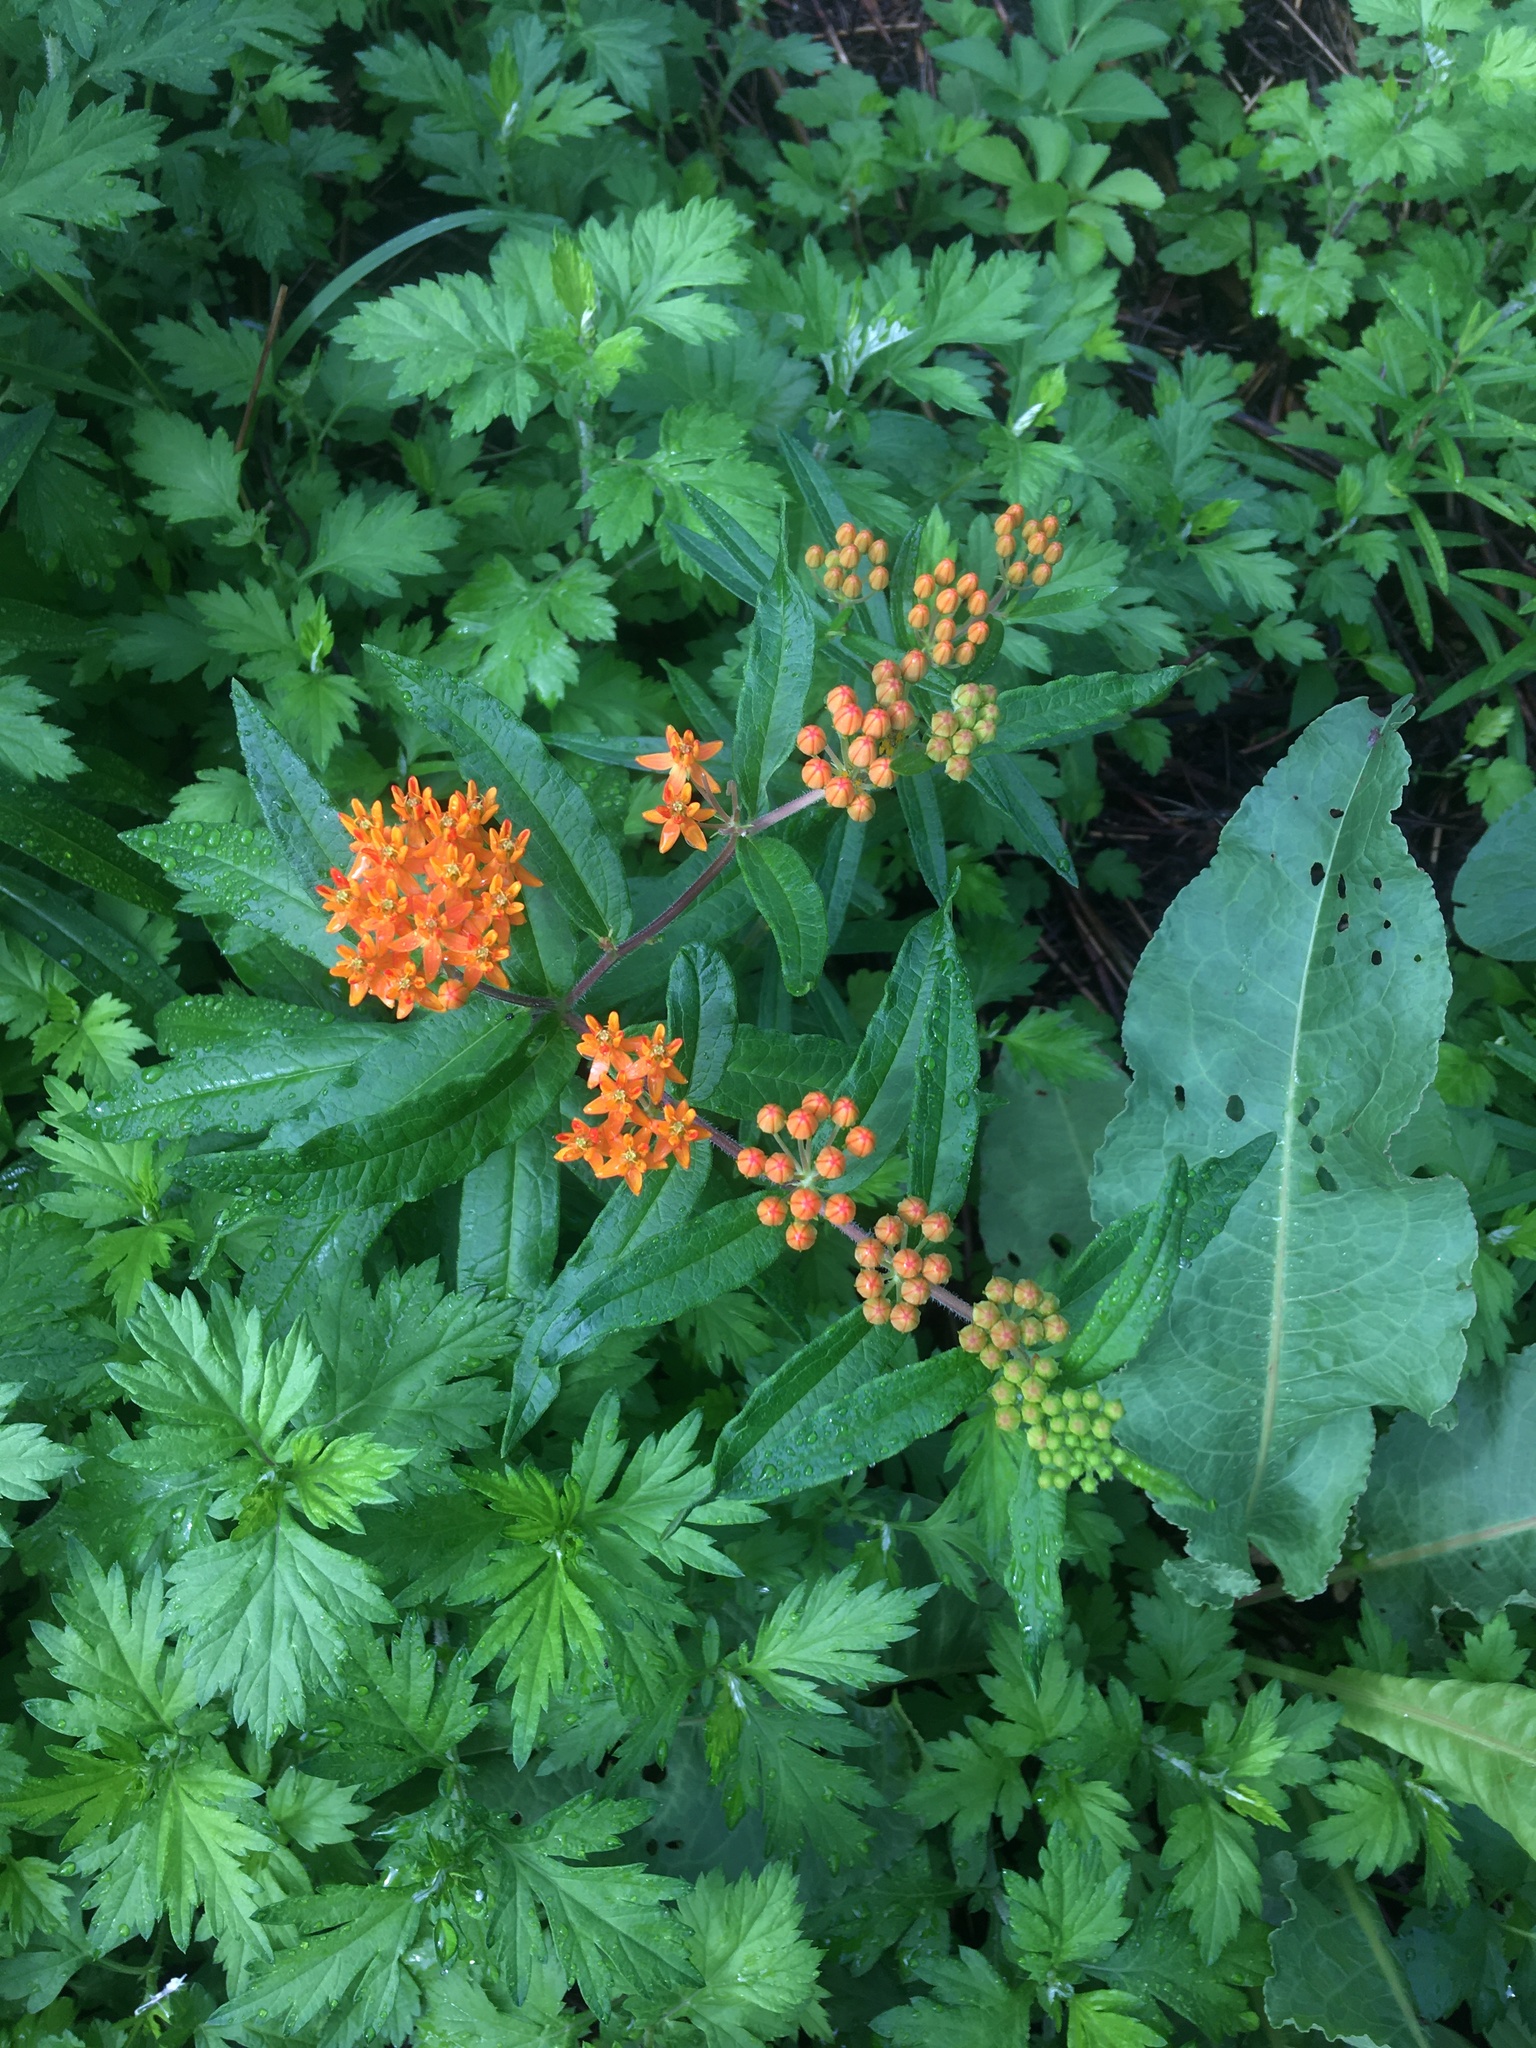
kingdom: Plantae
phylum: Tracheophyta
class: Magnoliopsida
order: Gentianales
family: Apocynaceae
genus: Asclepias
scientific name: Asclepias tuberosa
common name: Butterfly milkweed
